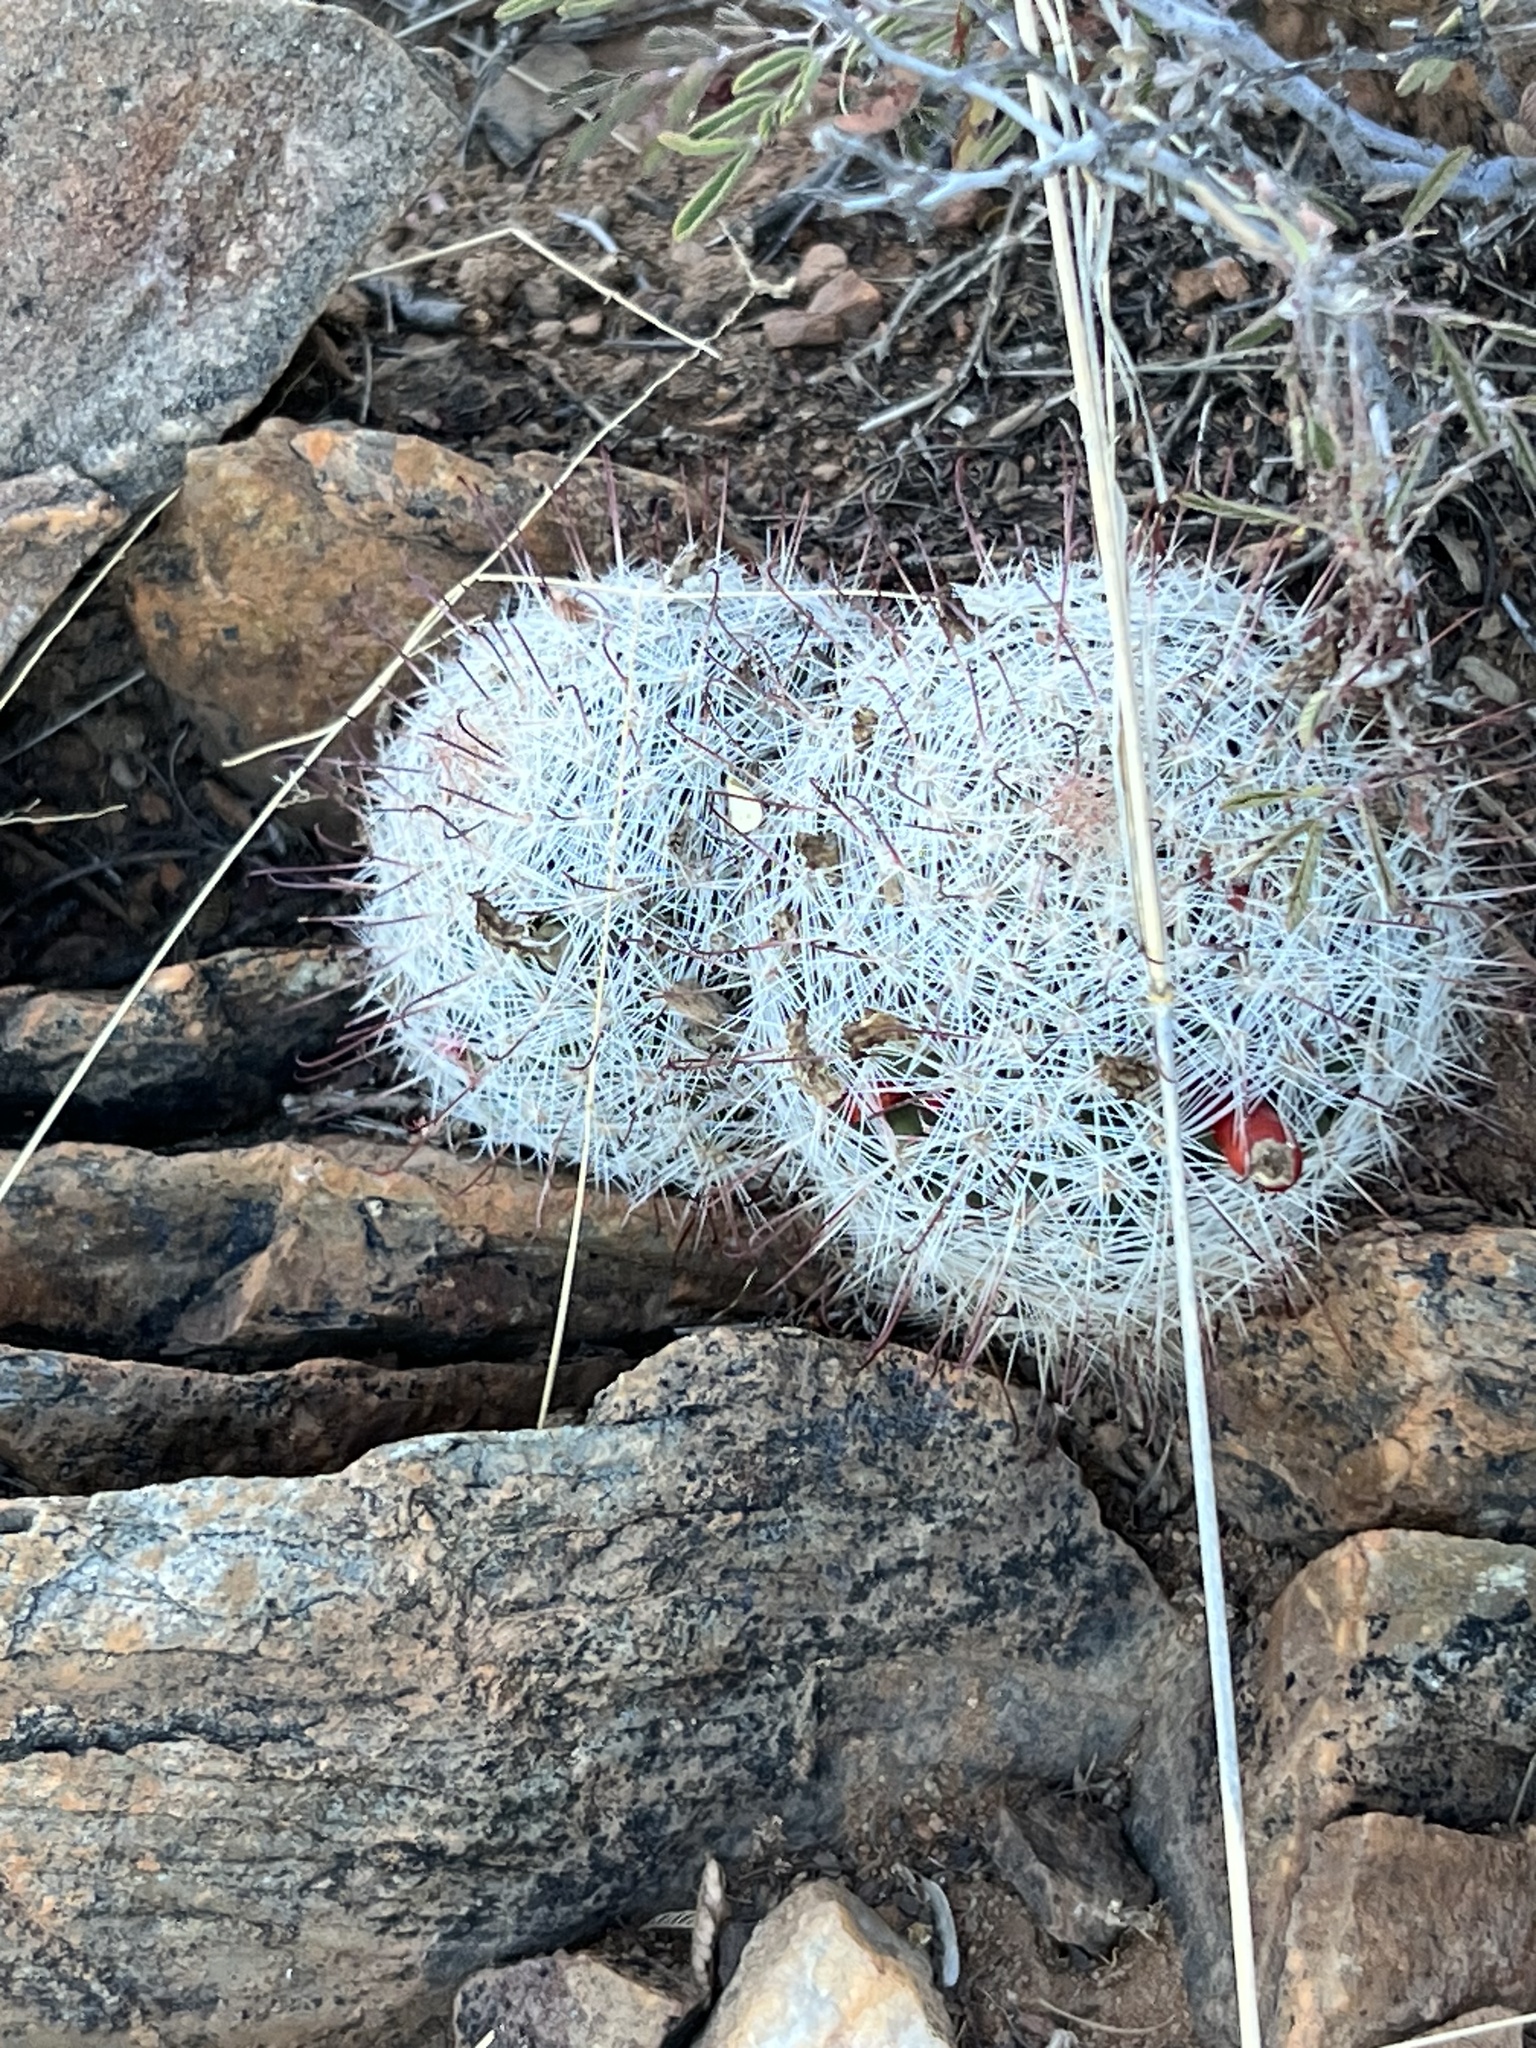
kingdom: Plantae
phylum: Tracheophyta
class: Magnoliopsida
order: Caryophyllales
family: Cactaceae
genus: Cochemiea
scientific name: Cochemiea grahamii
